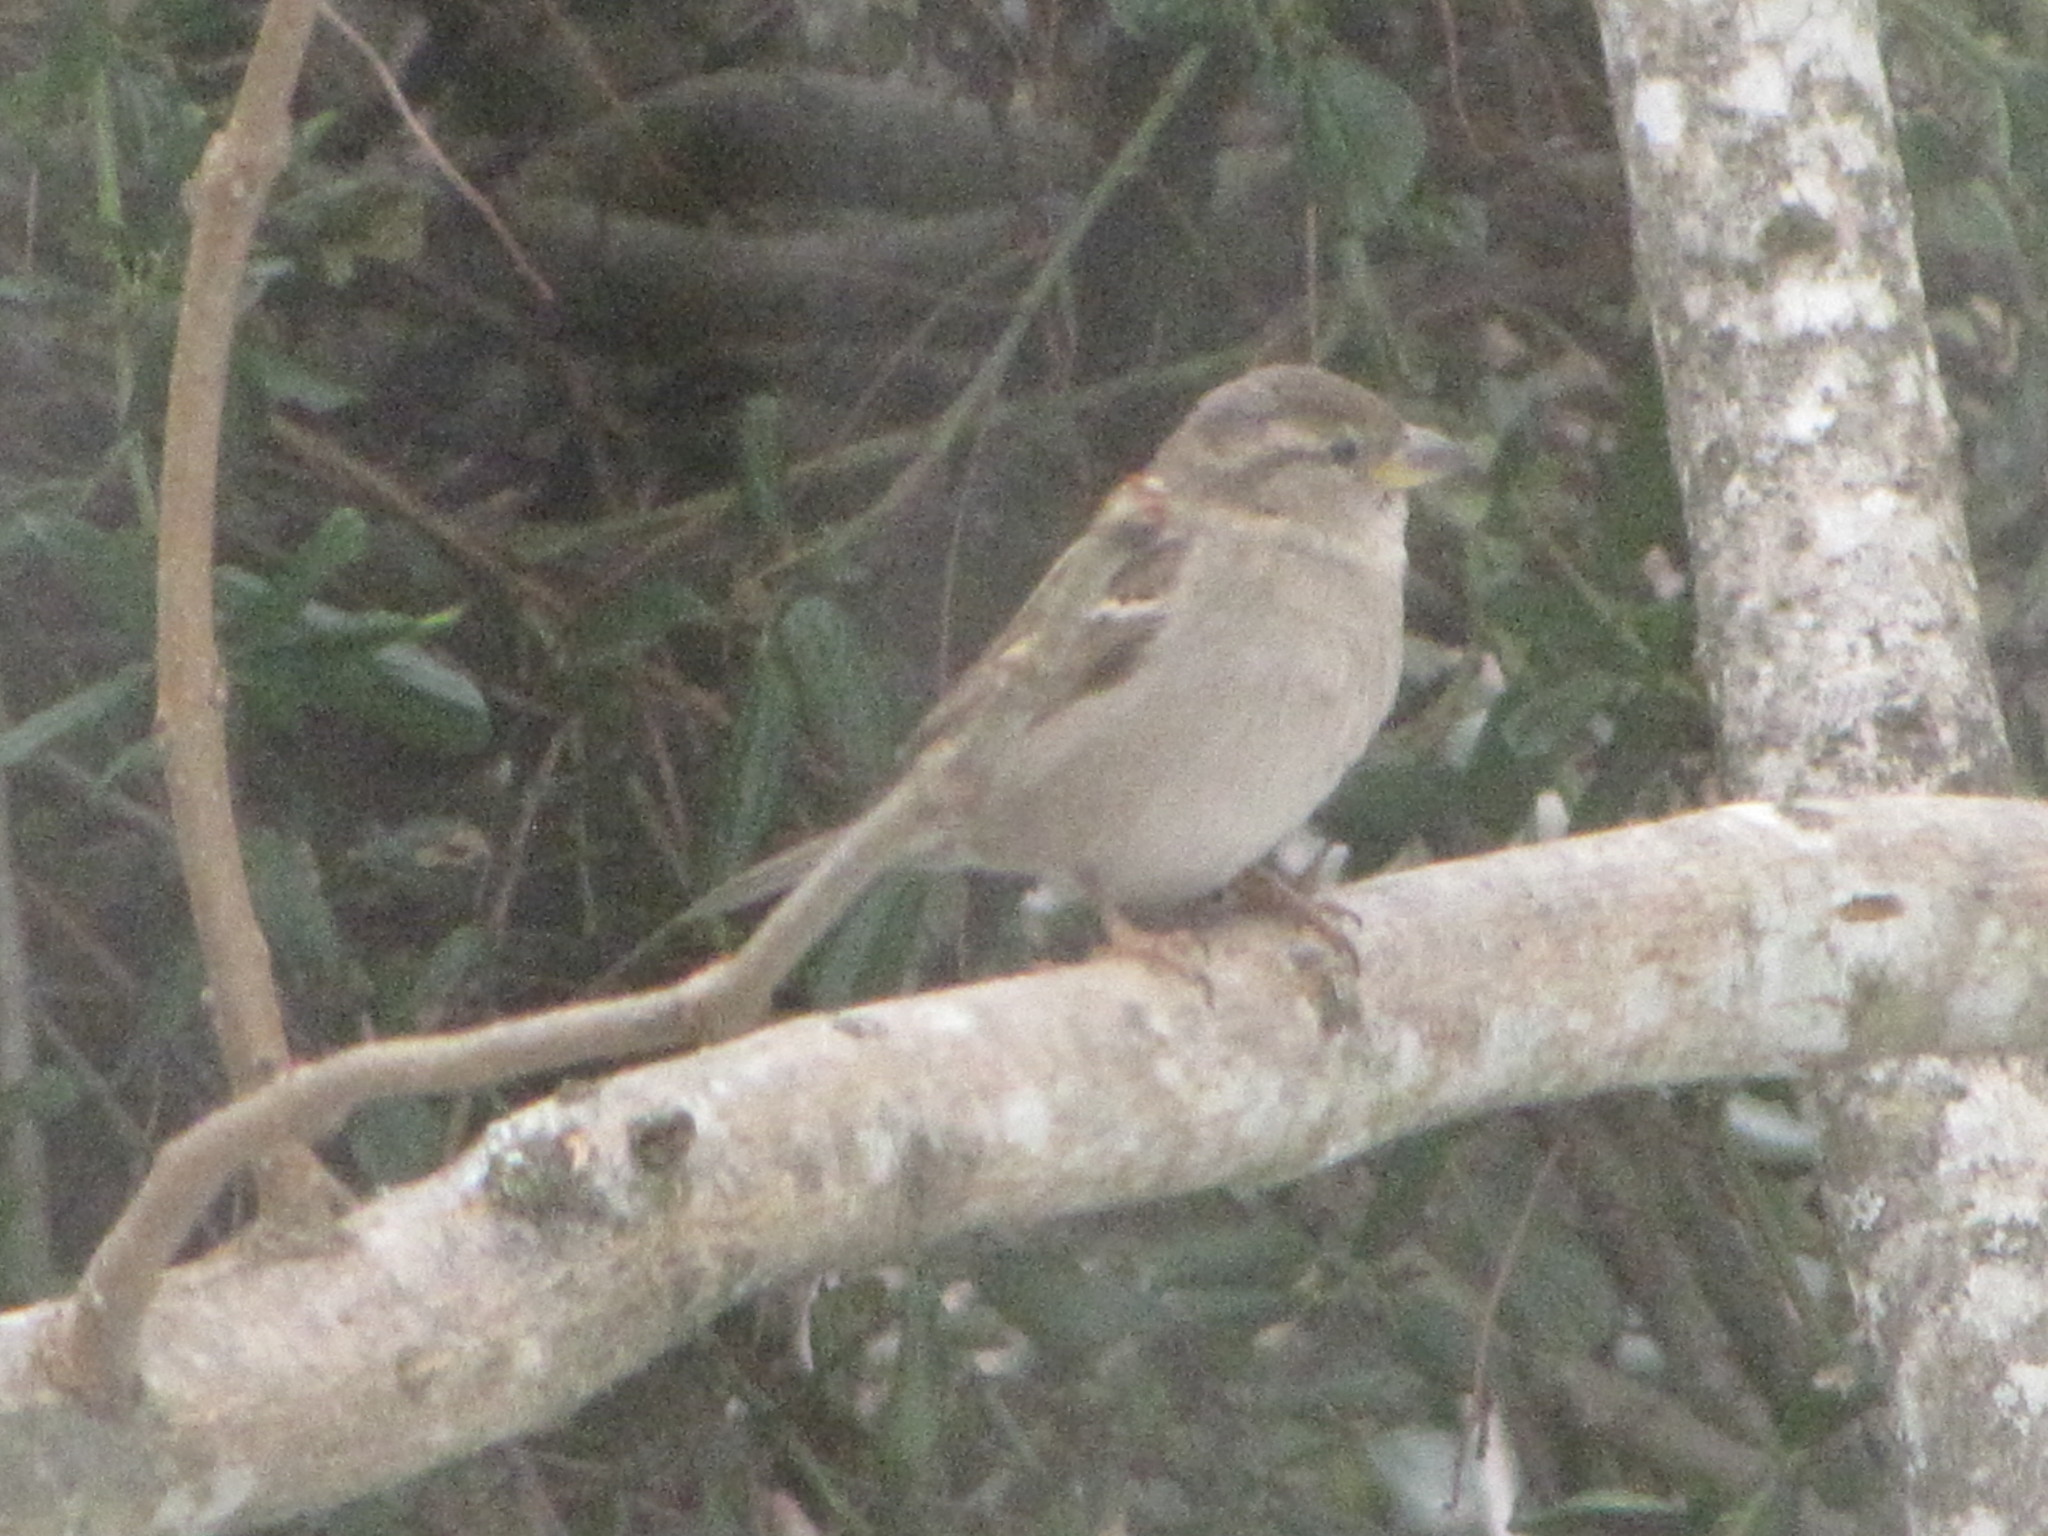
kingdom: Animalia
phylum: Chordata
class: Aves
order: Passeriformes
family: Passeridae
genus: Passer
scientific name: Passer domesticus
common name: House sparrow
